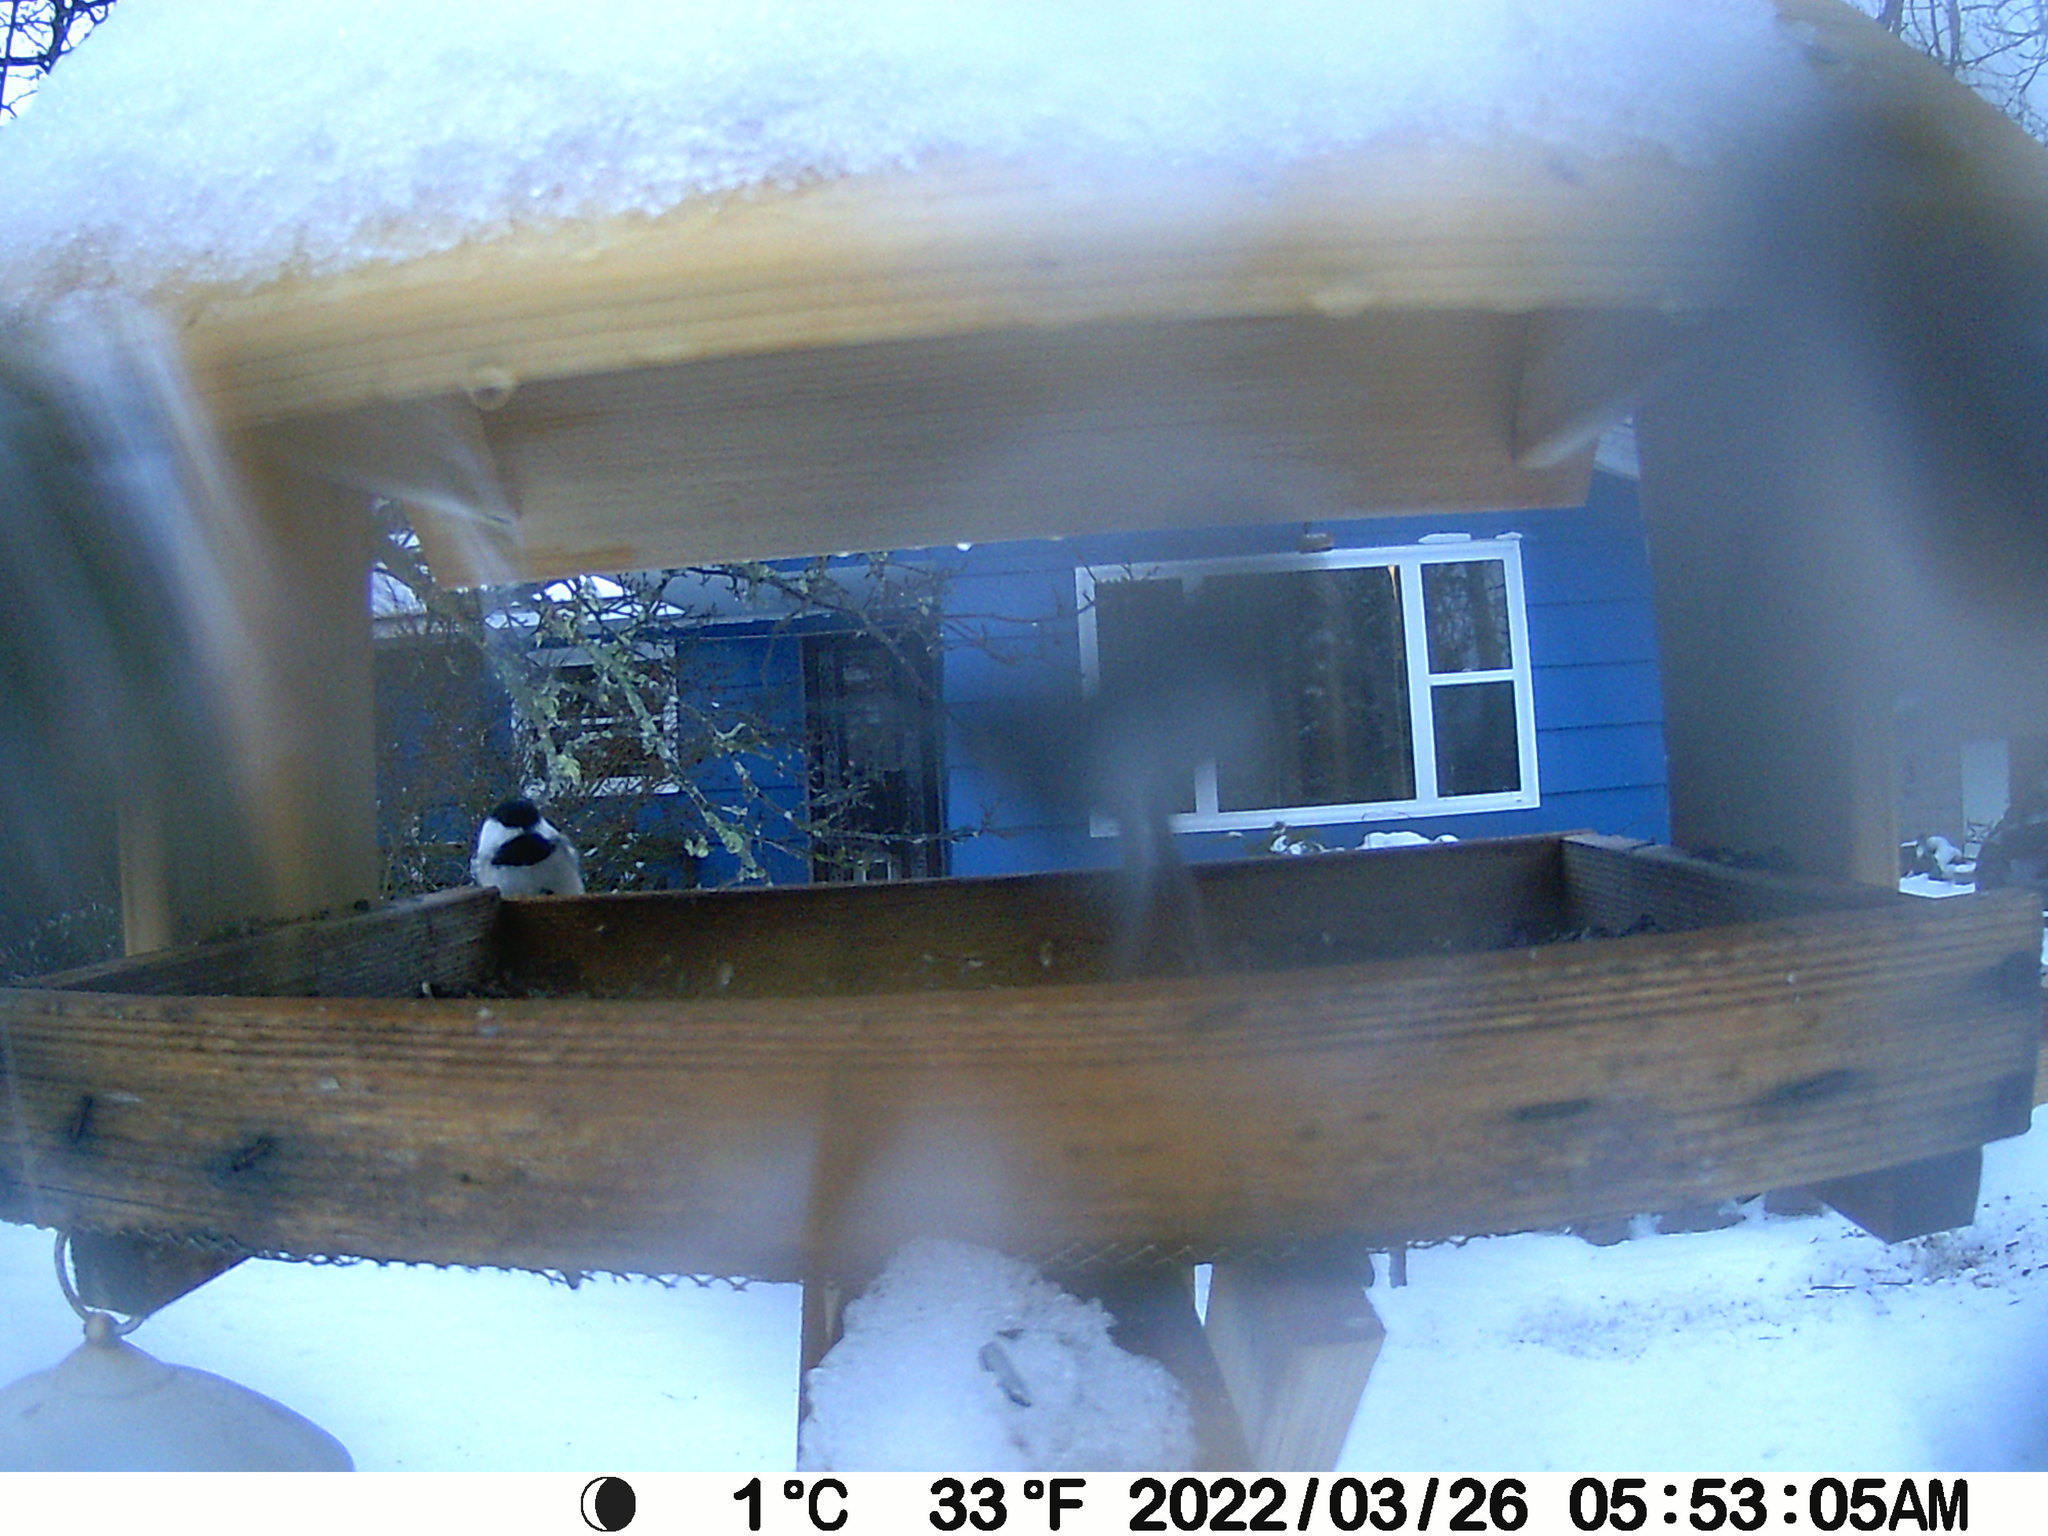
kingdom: Animalia
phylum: Chordata
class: Aves
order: Passeriformes
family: Paridae
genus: Poecile
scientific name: Poecile atricapillus
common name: Black-capped chickadee
